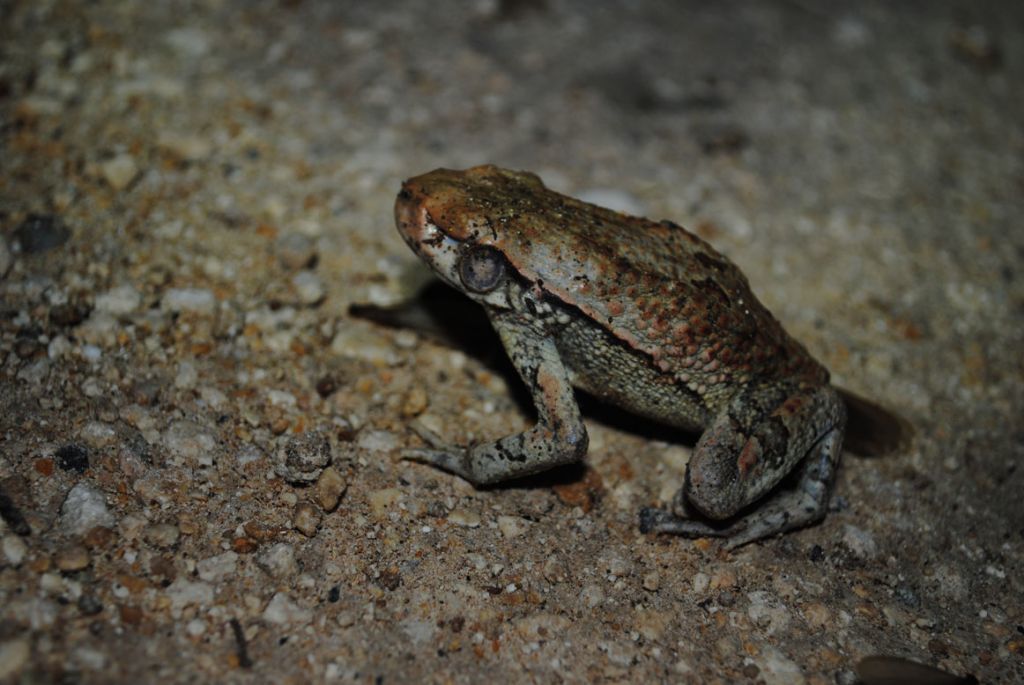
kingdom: Animalia
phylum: Chordata
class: Amphibia
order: Anura
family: Bufonidae
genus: Schismaderma
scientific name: Schismaderma carens
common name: African split-skin toad
